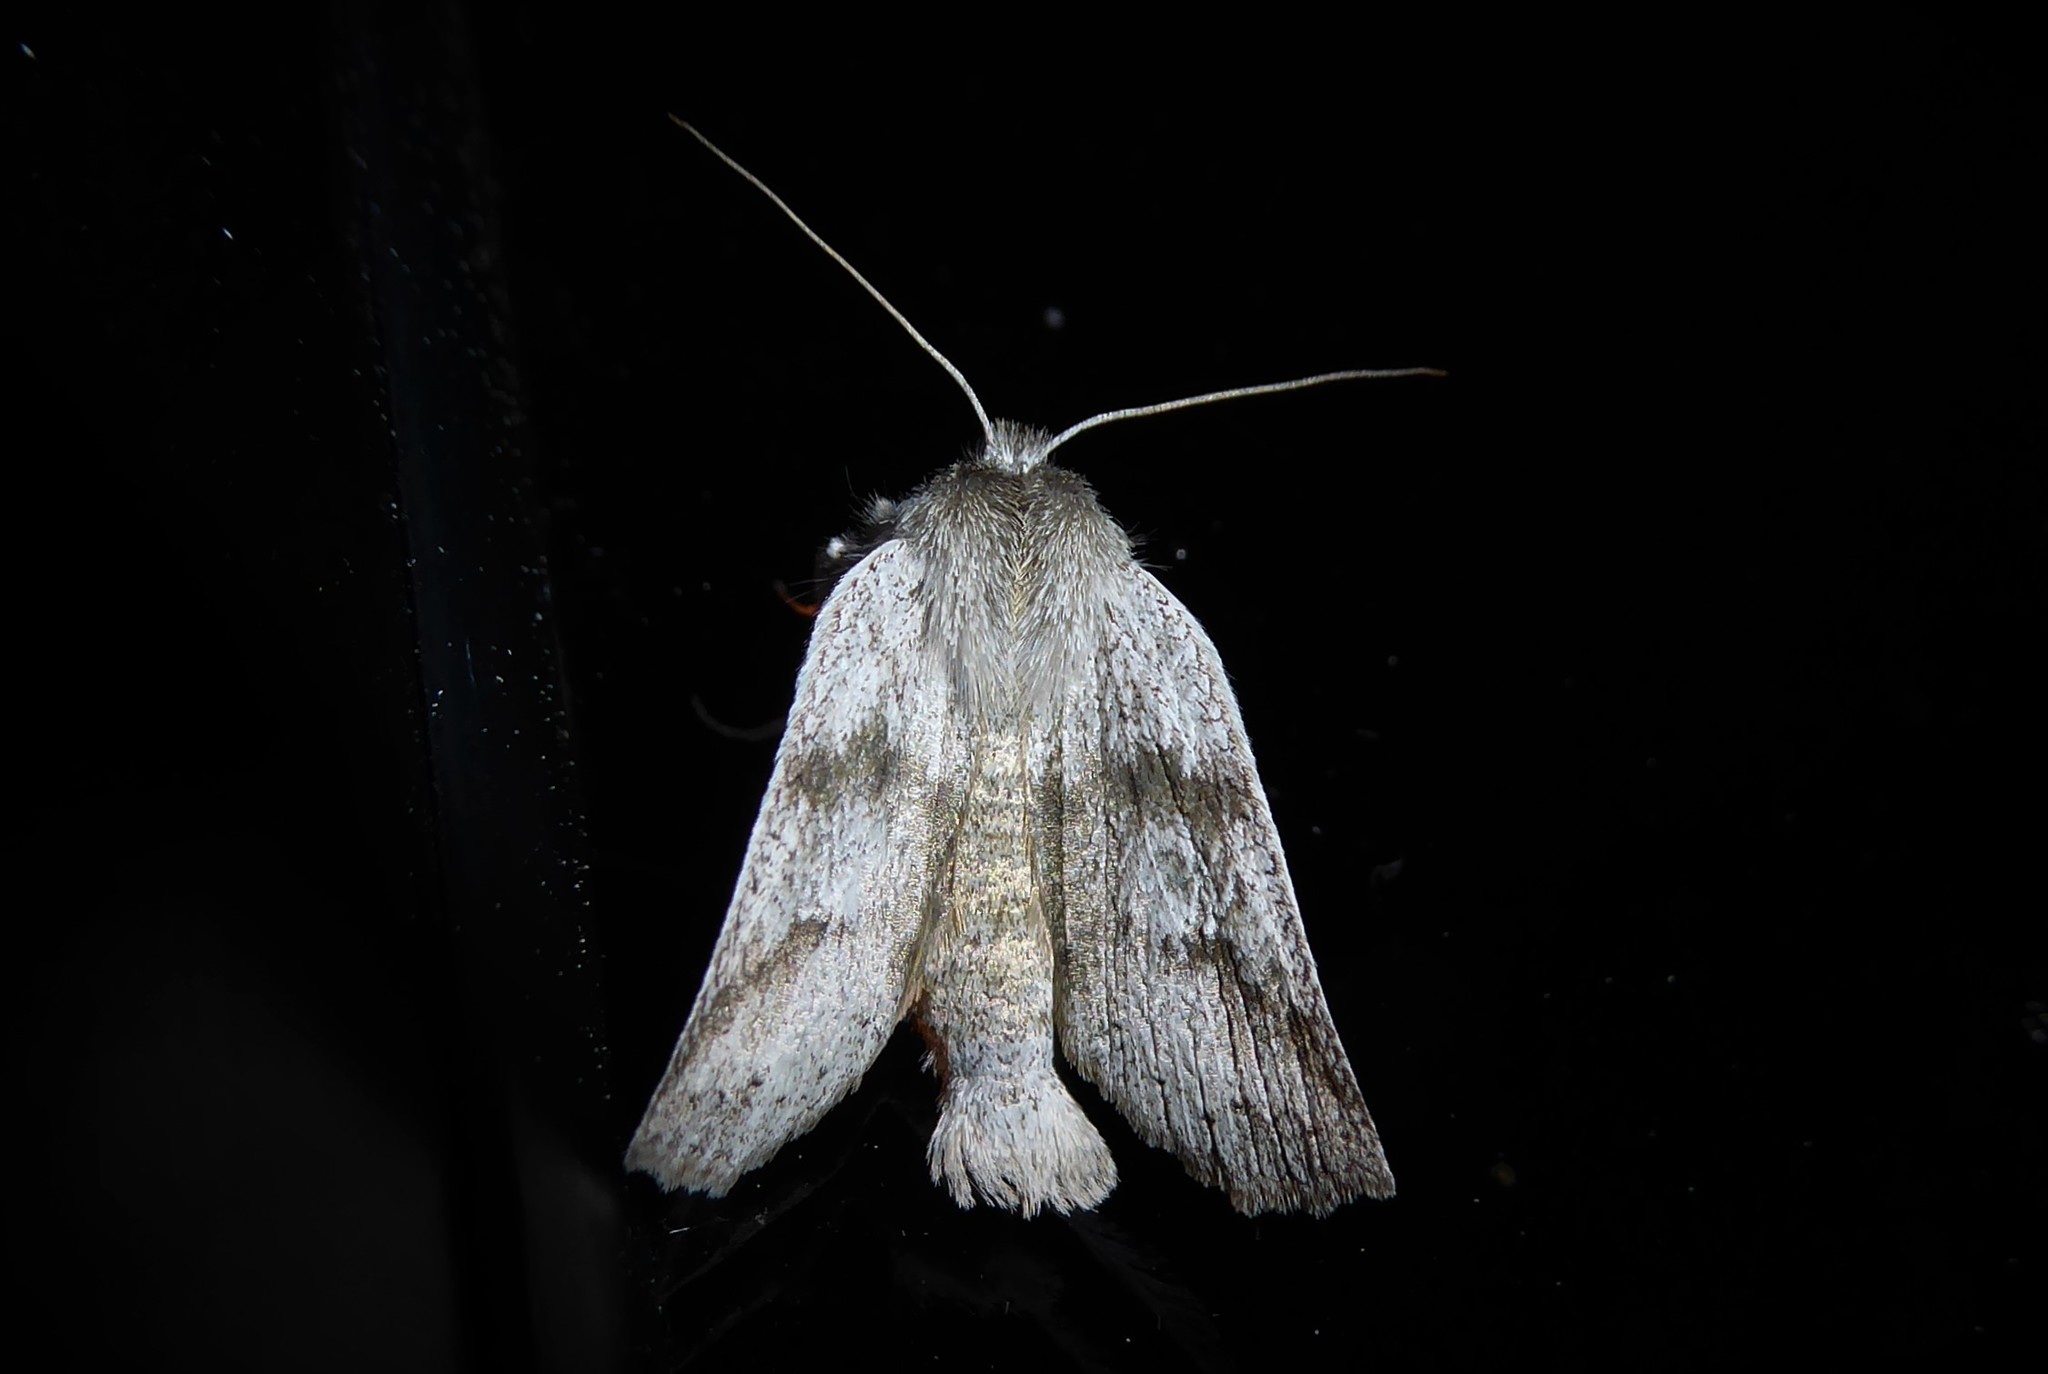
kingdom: Animalia
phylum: Arthropoda
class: Insecta
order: Lepidoptera
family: Geometridae
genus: Declana
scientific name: Declana leptomera
